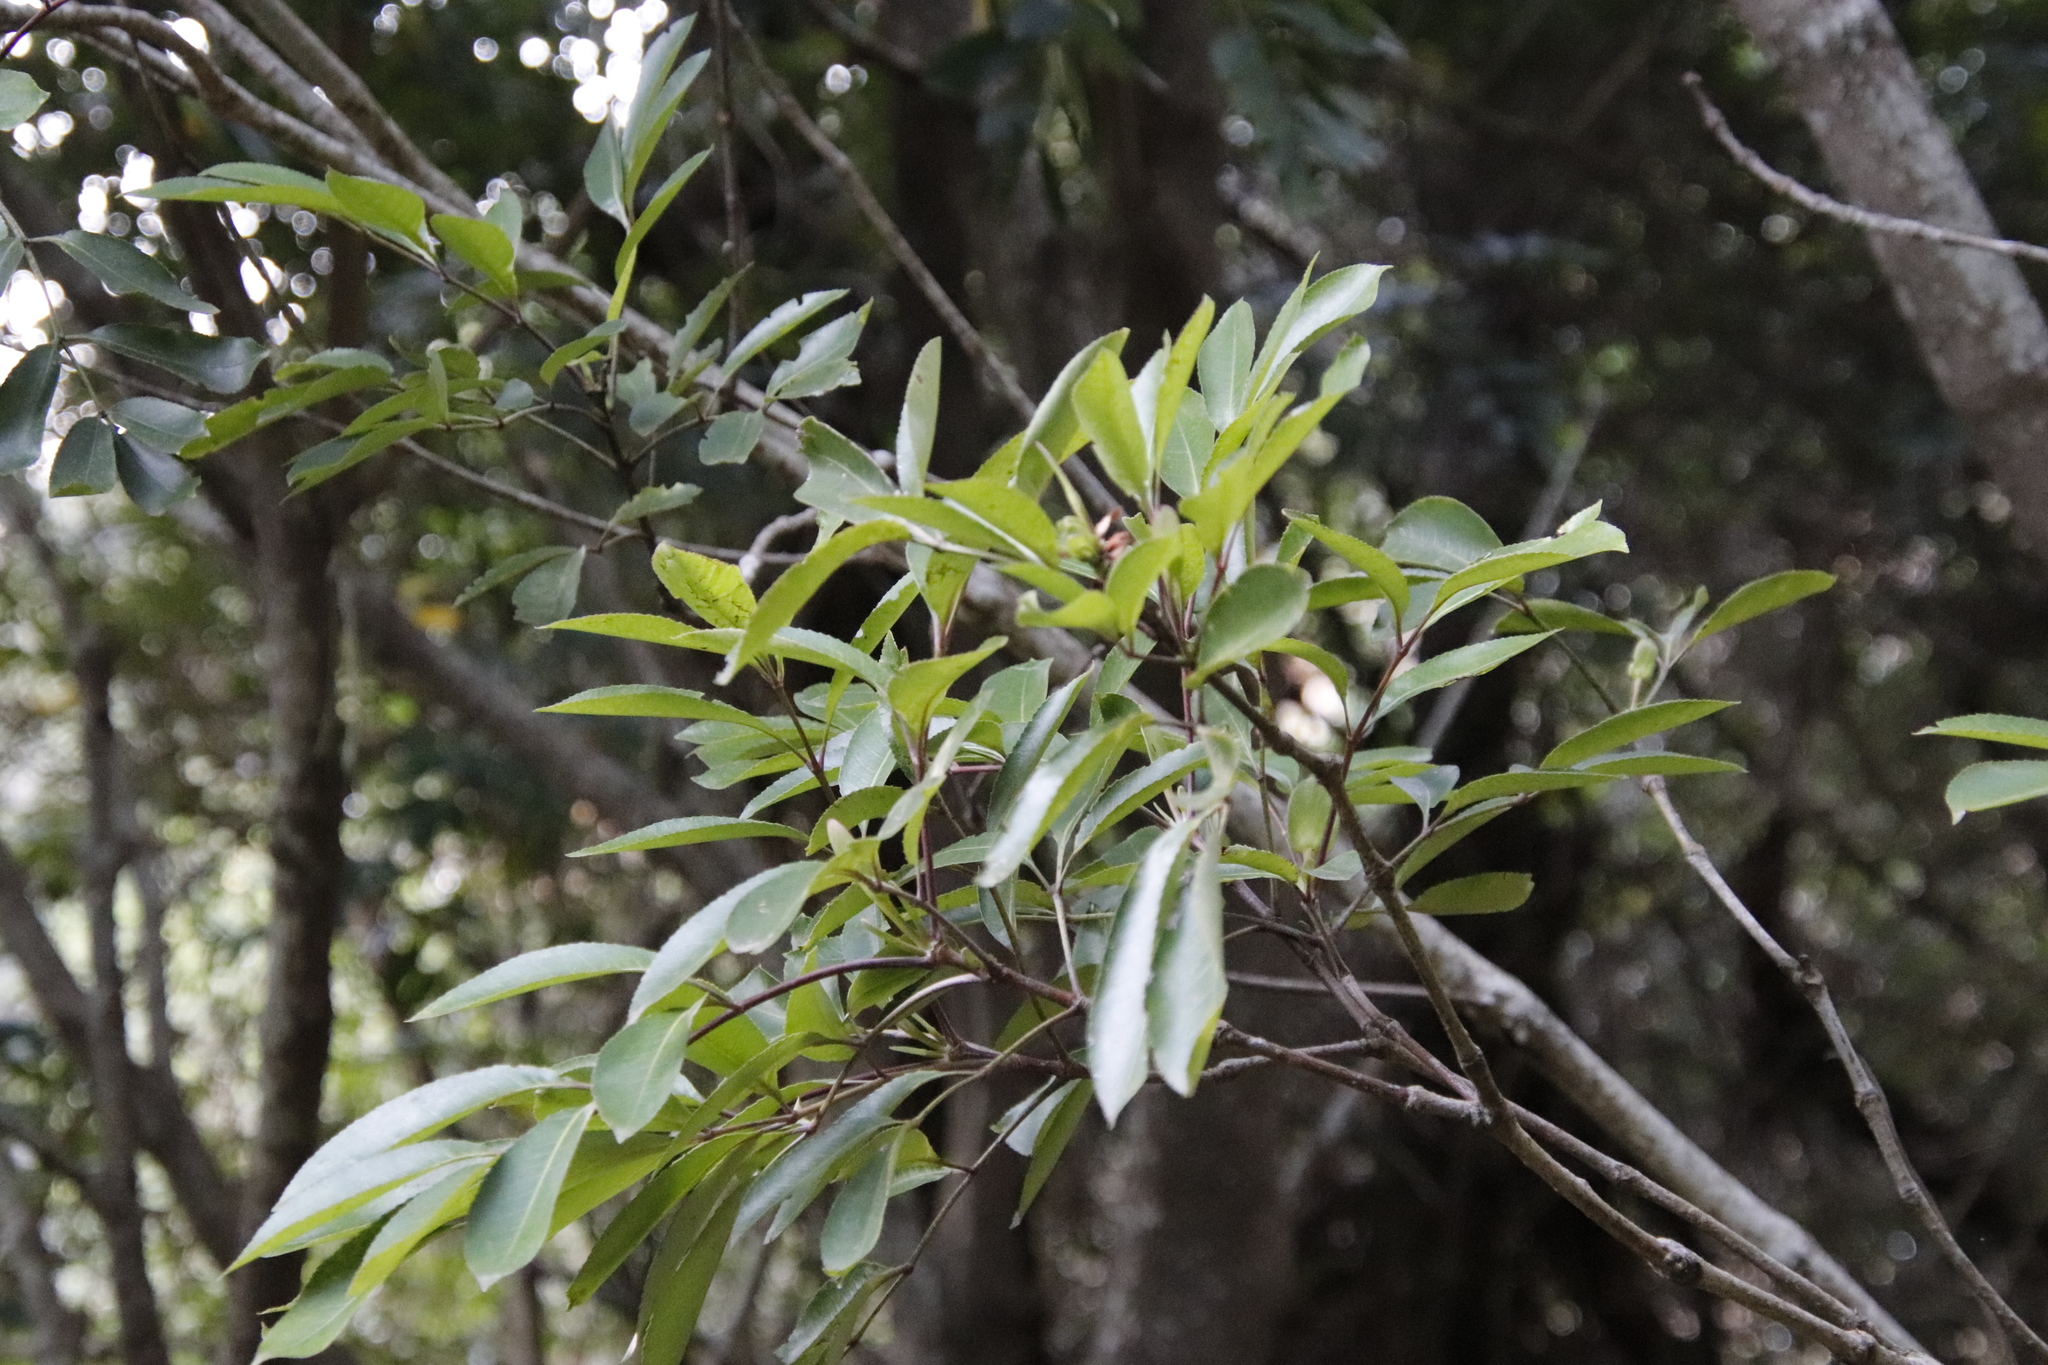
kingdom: Plantae
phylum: Tracheophyta
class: Magnoliopsida
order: Oxalidales
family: Cunoniaceae
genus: Cunonia
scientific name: Cunonia capensis
